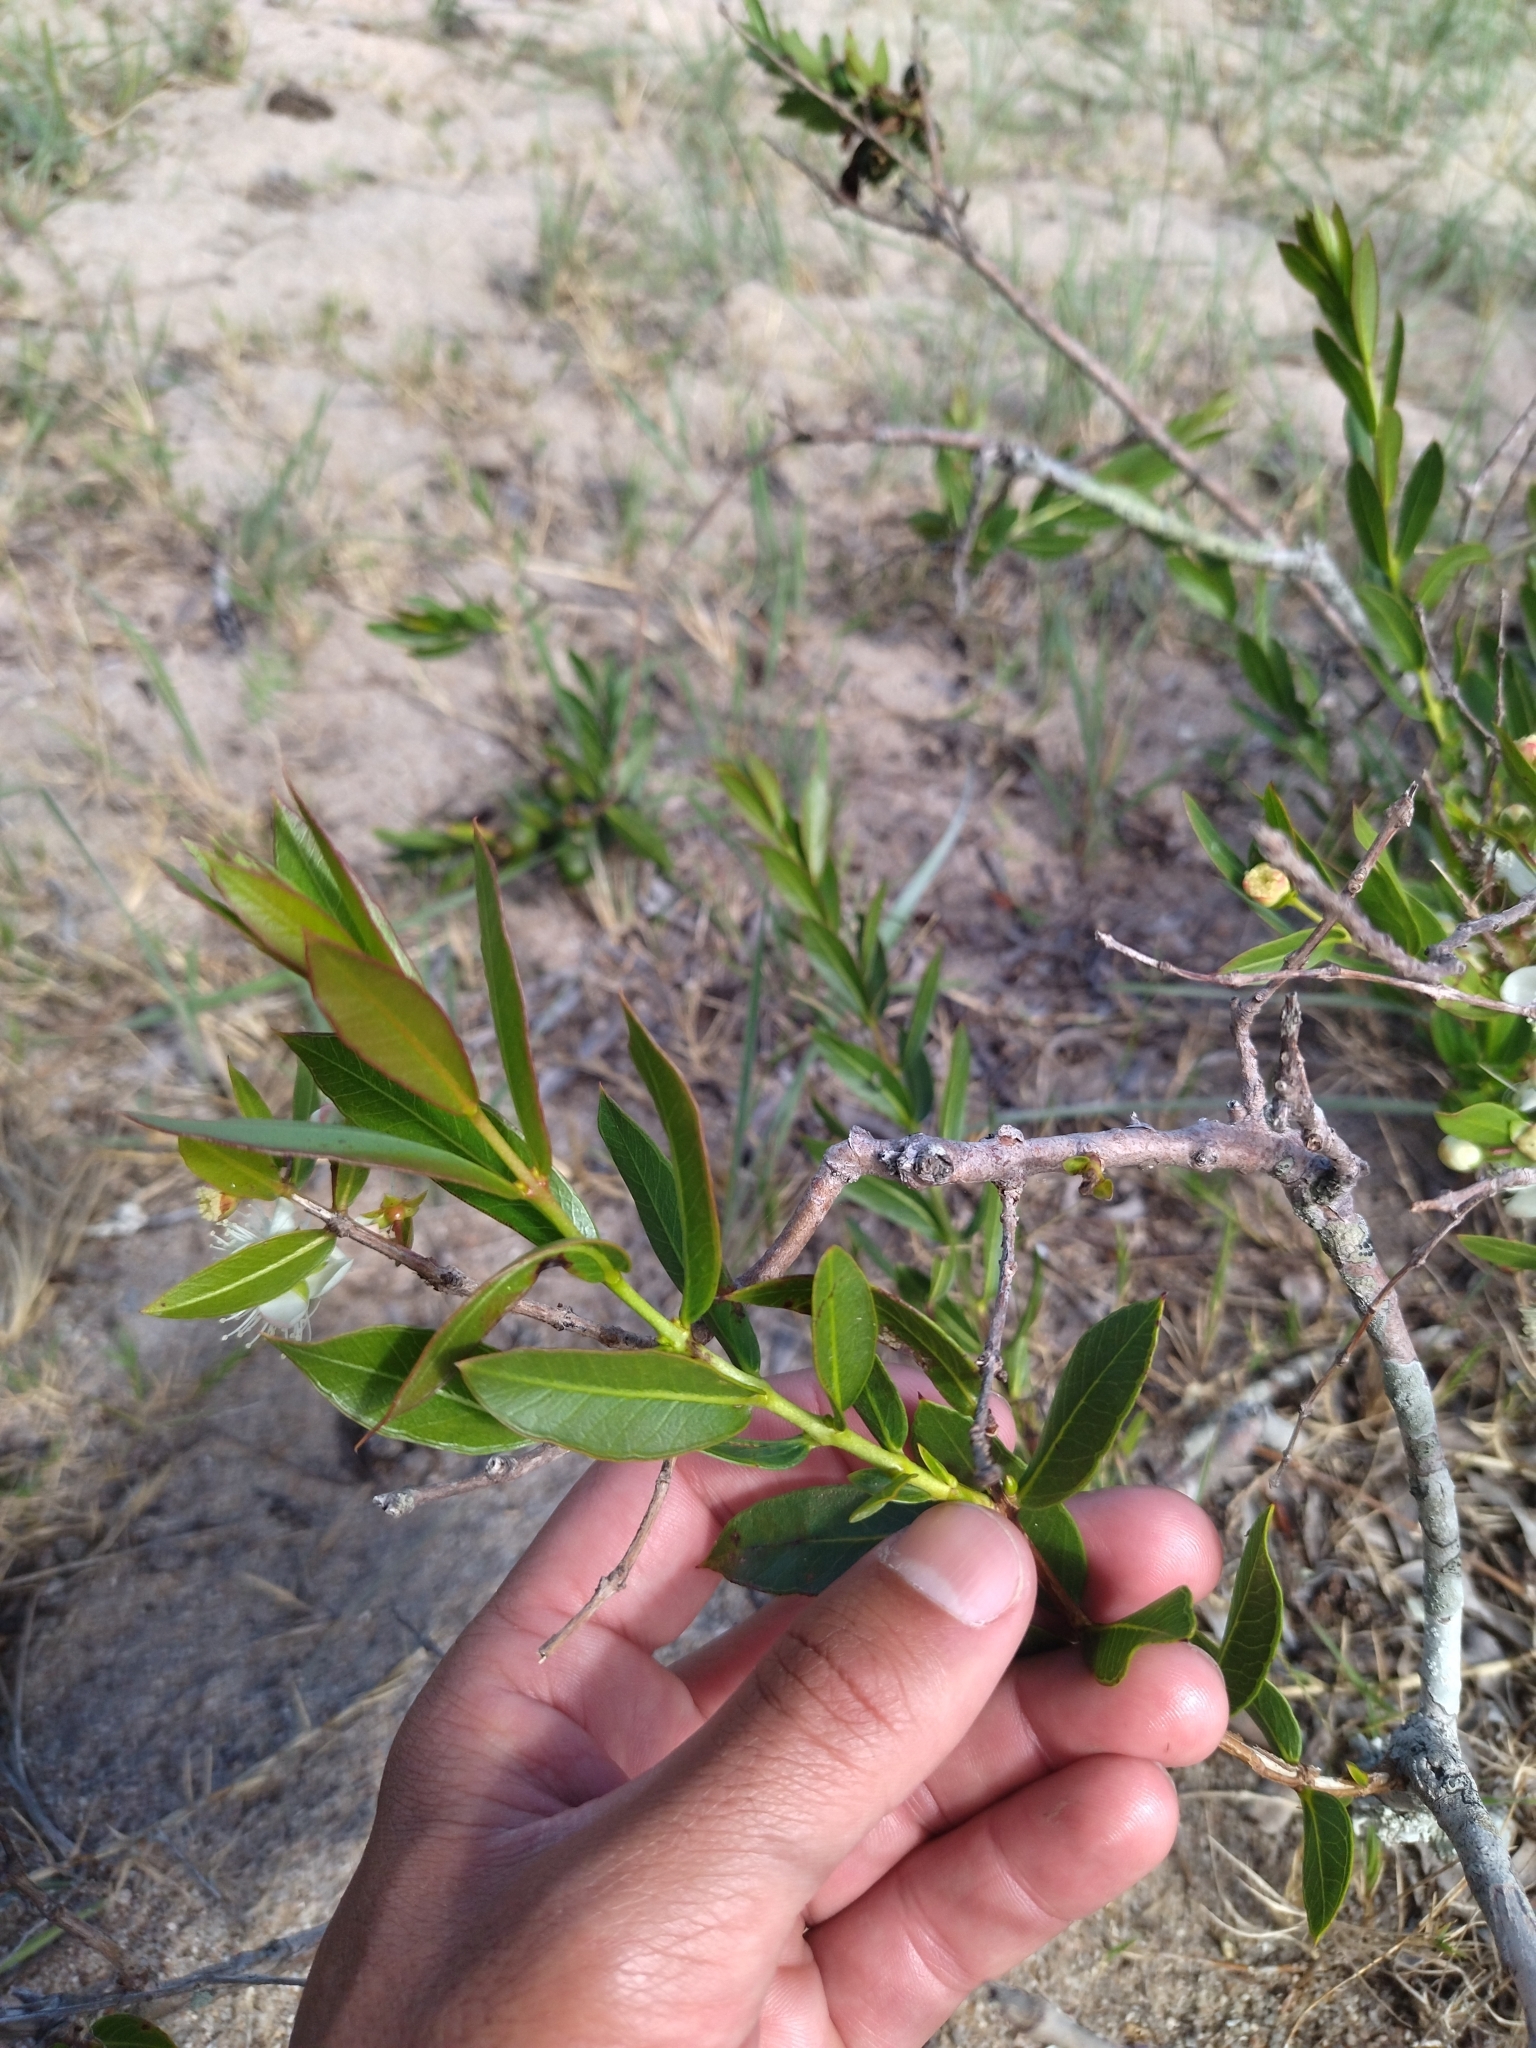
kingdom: Plantae
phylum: Tracheophyta
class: Magnoliopsida
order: Myrtales
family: Myrtaceae
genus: Psidium
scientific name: Psidium salutare
